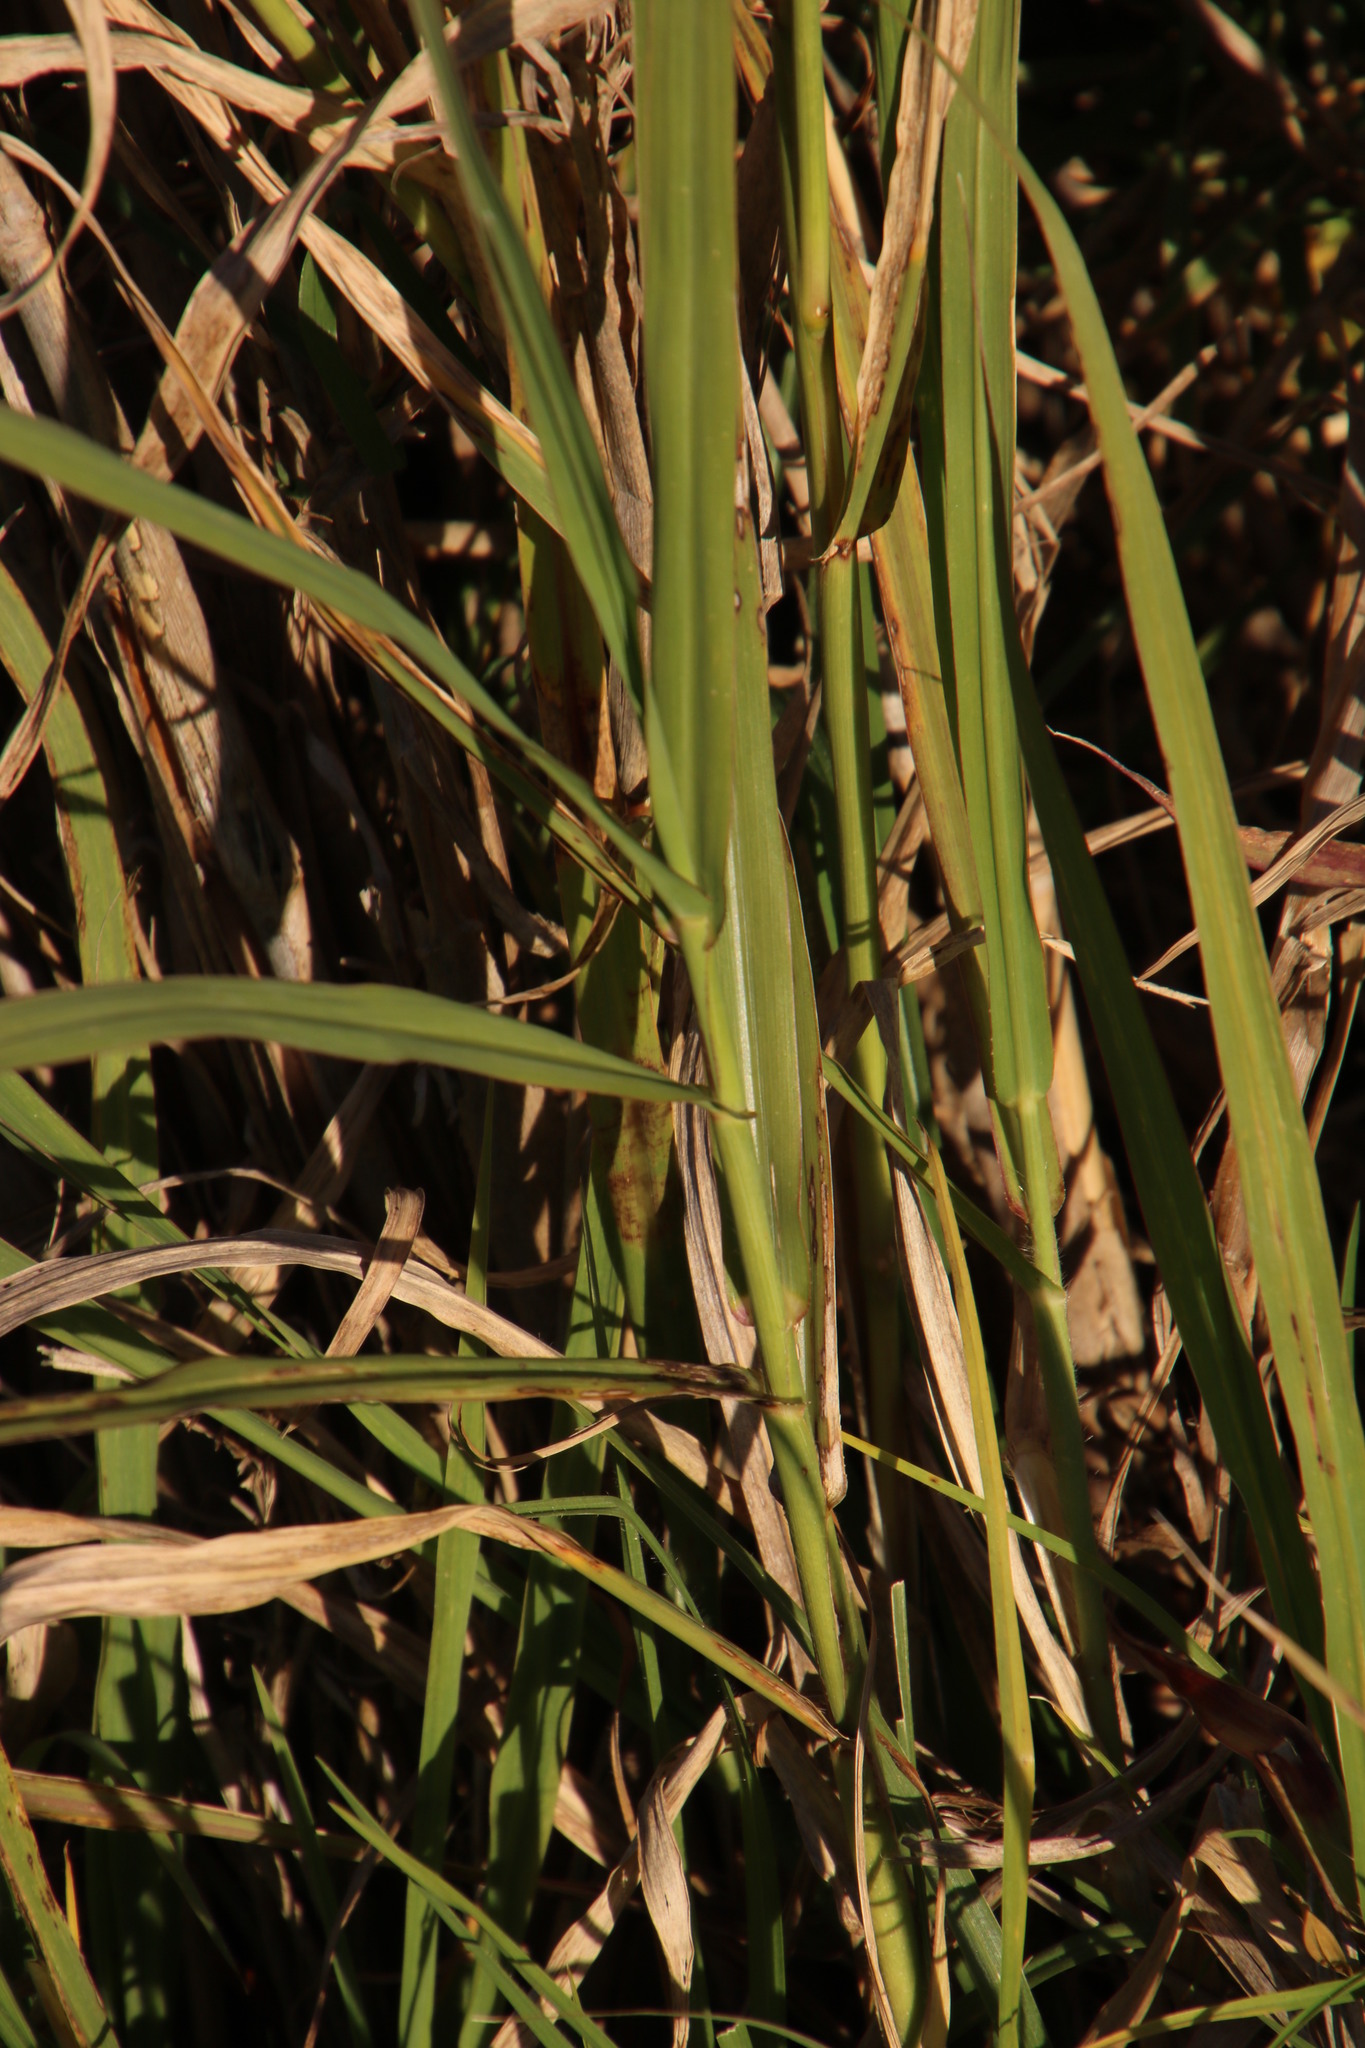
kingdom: Plantae
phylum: Tracheophyta
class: Liliopsida
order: Poales
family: Poaceae
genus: Echinochloa
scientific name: Echinochloa pyramidalis
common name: Antelope grass
